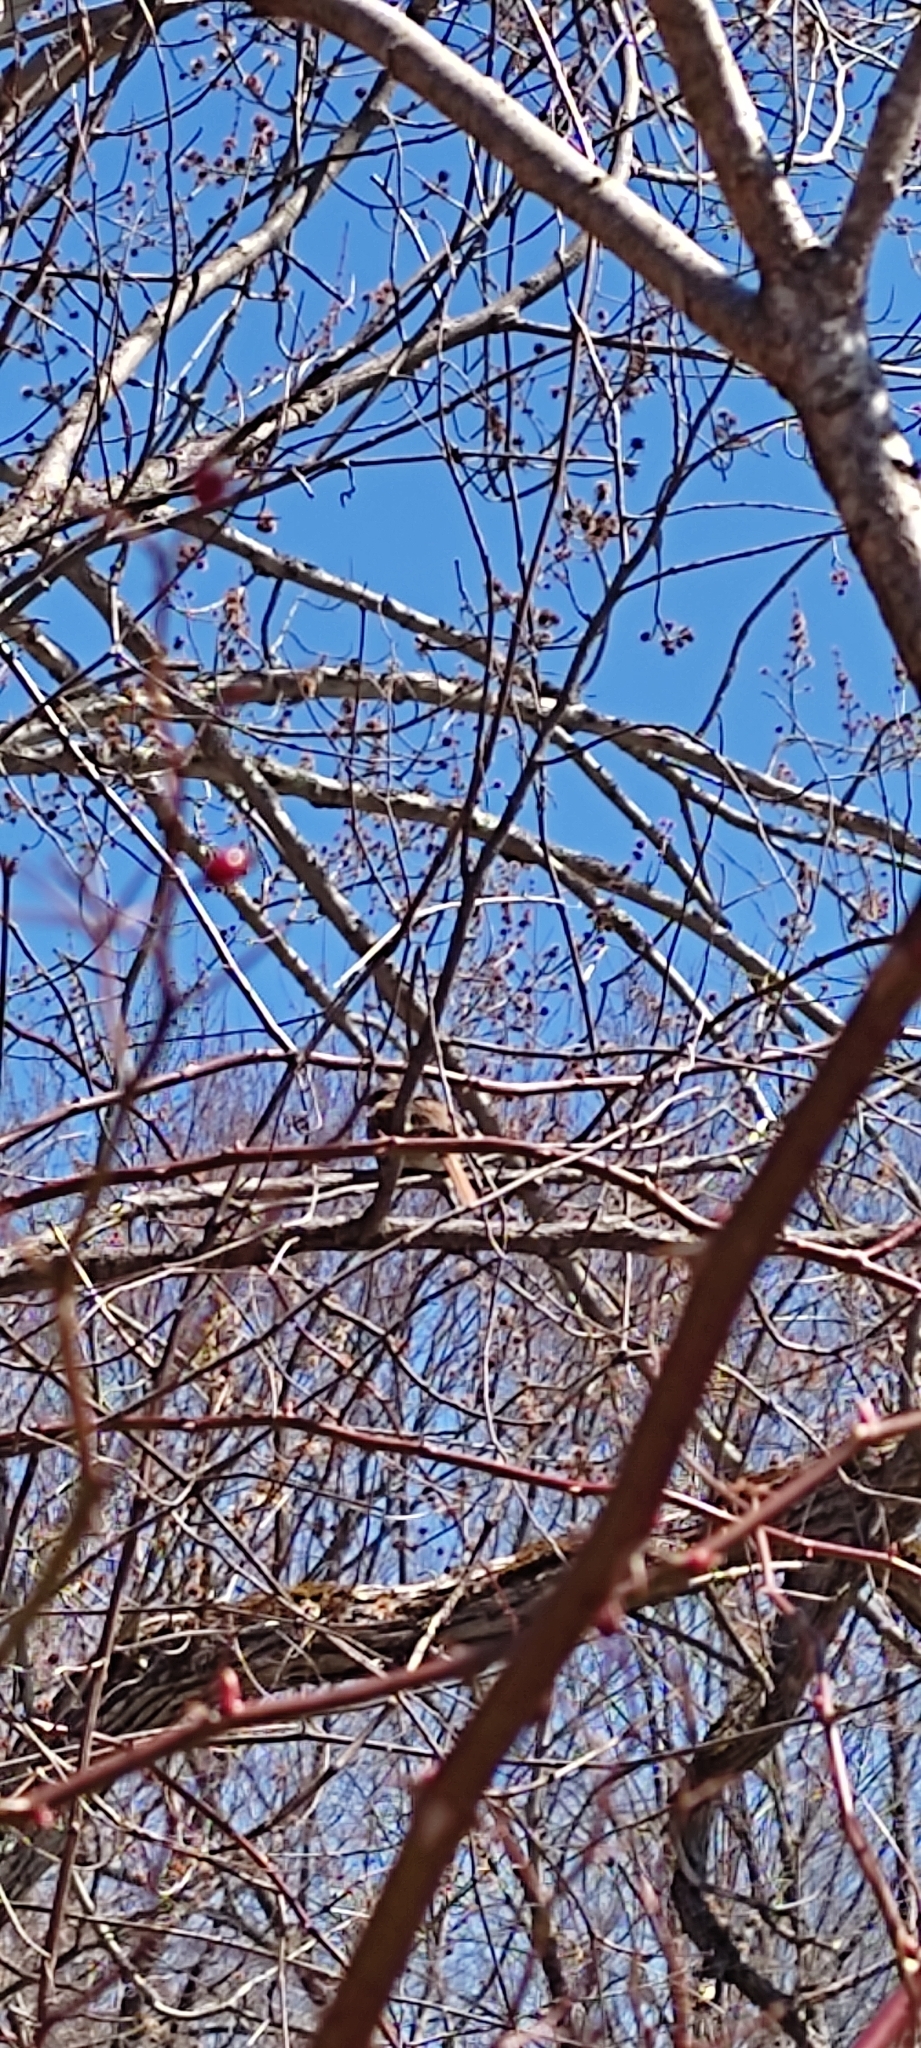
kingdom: Animalia
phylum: Chordata
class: Aves
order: Passeriformes
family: Passerellidae
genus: Melospiza
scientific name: Melospiza melodia
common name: Song sparrow
